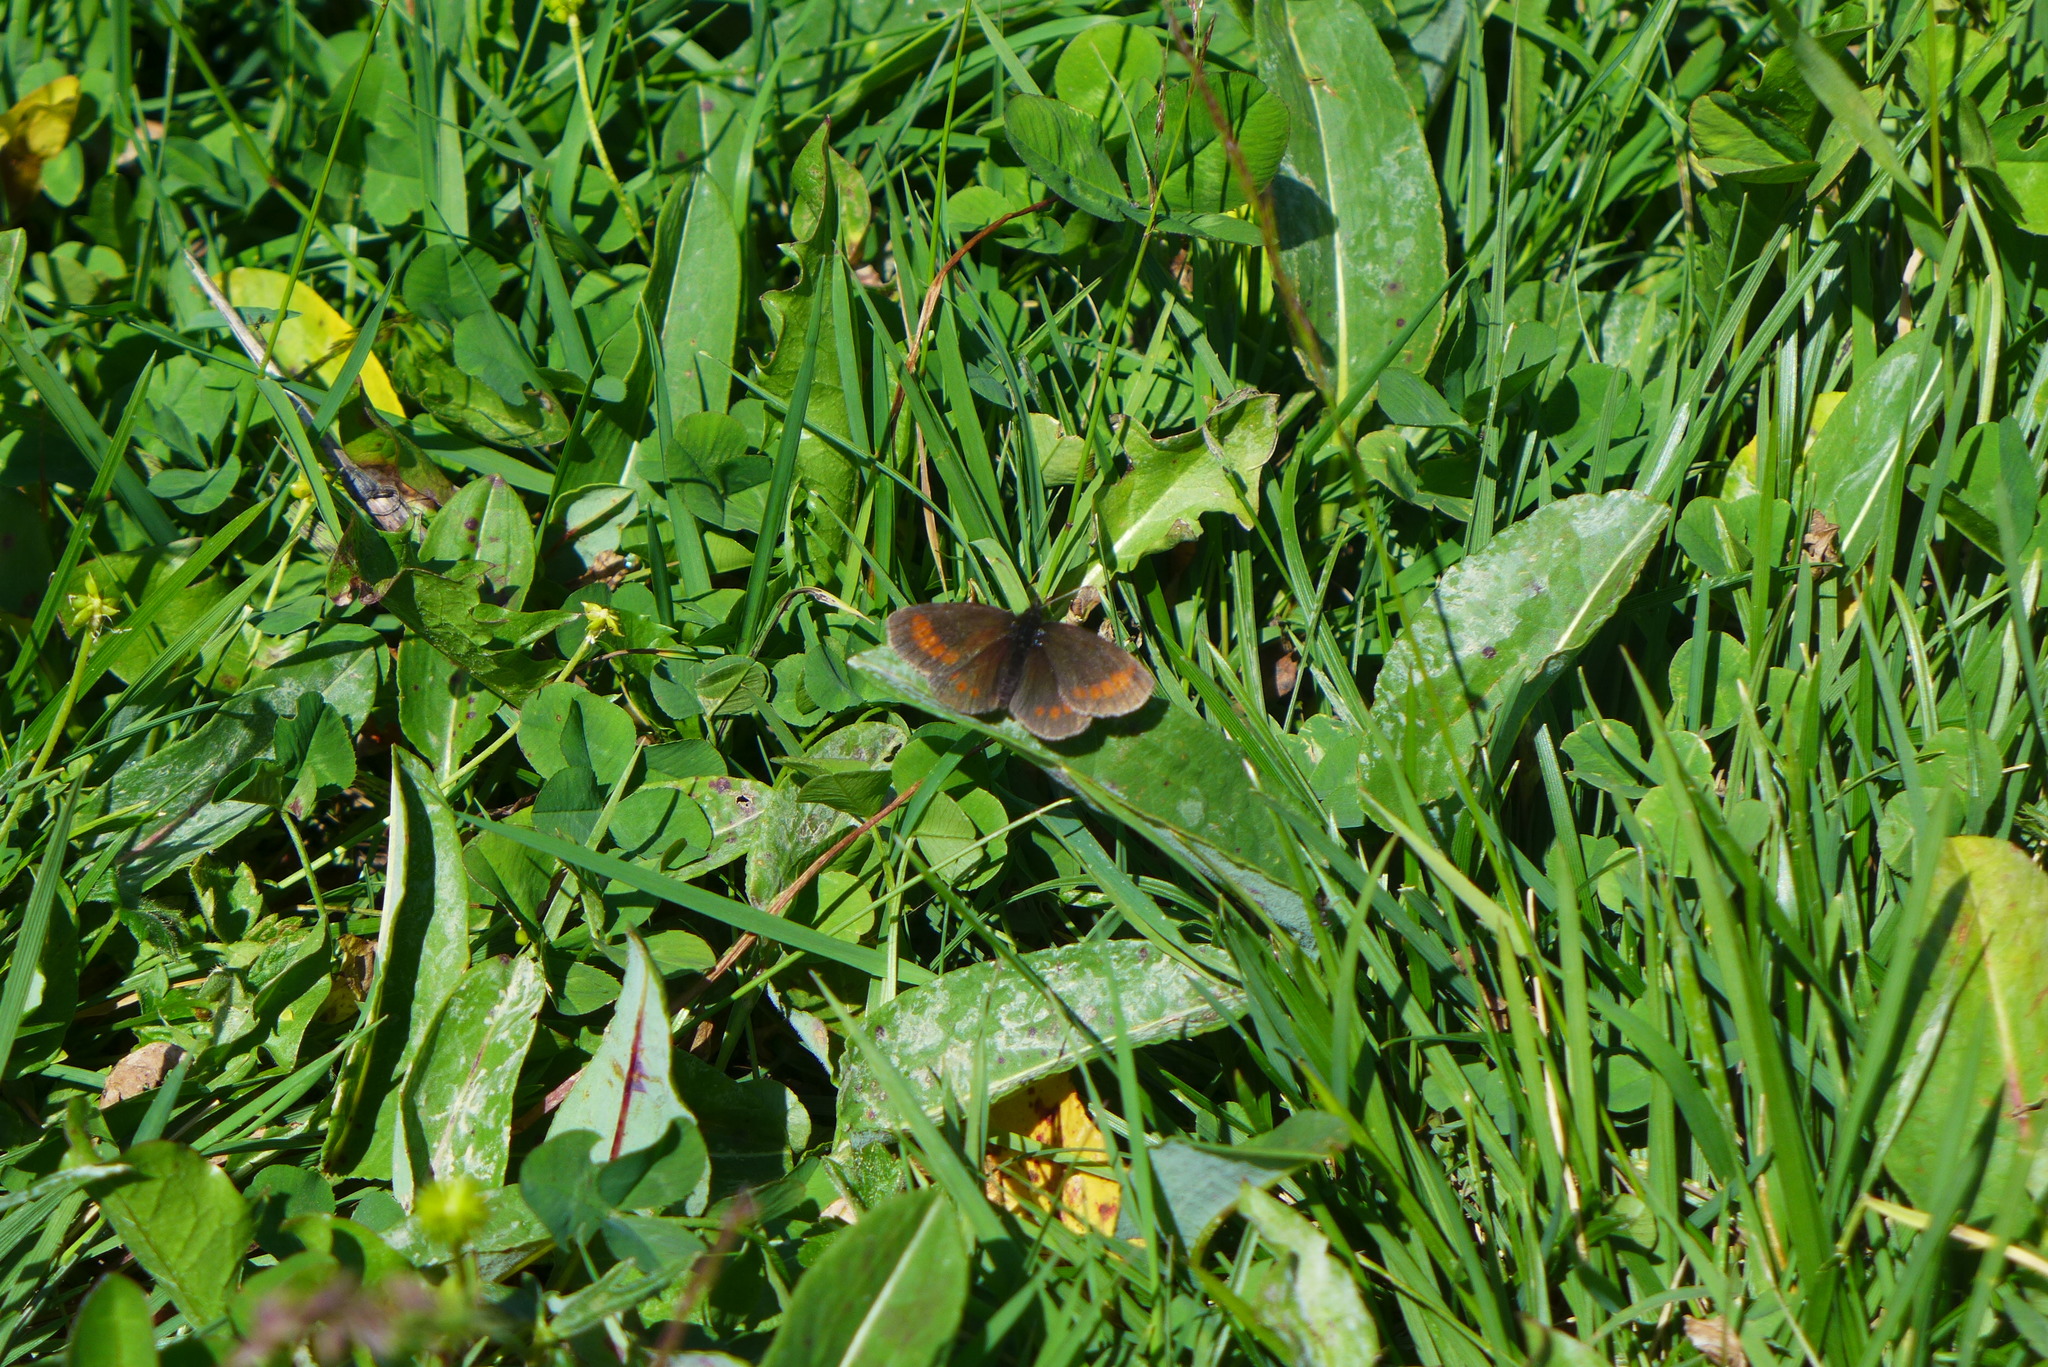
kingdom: Animalia
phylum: Arthropoda
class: Insecta
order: Lepidoptera
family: Nymphalidae
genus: Erebia
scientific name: Erebia melampus
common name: Lesser mountain ringlet
